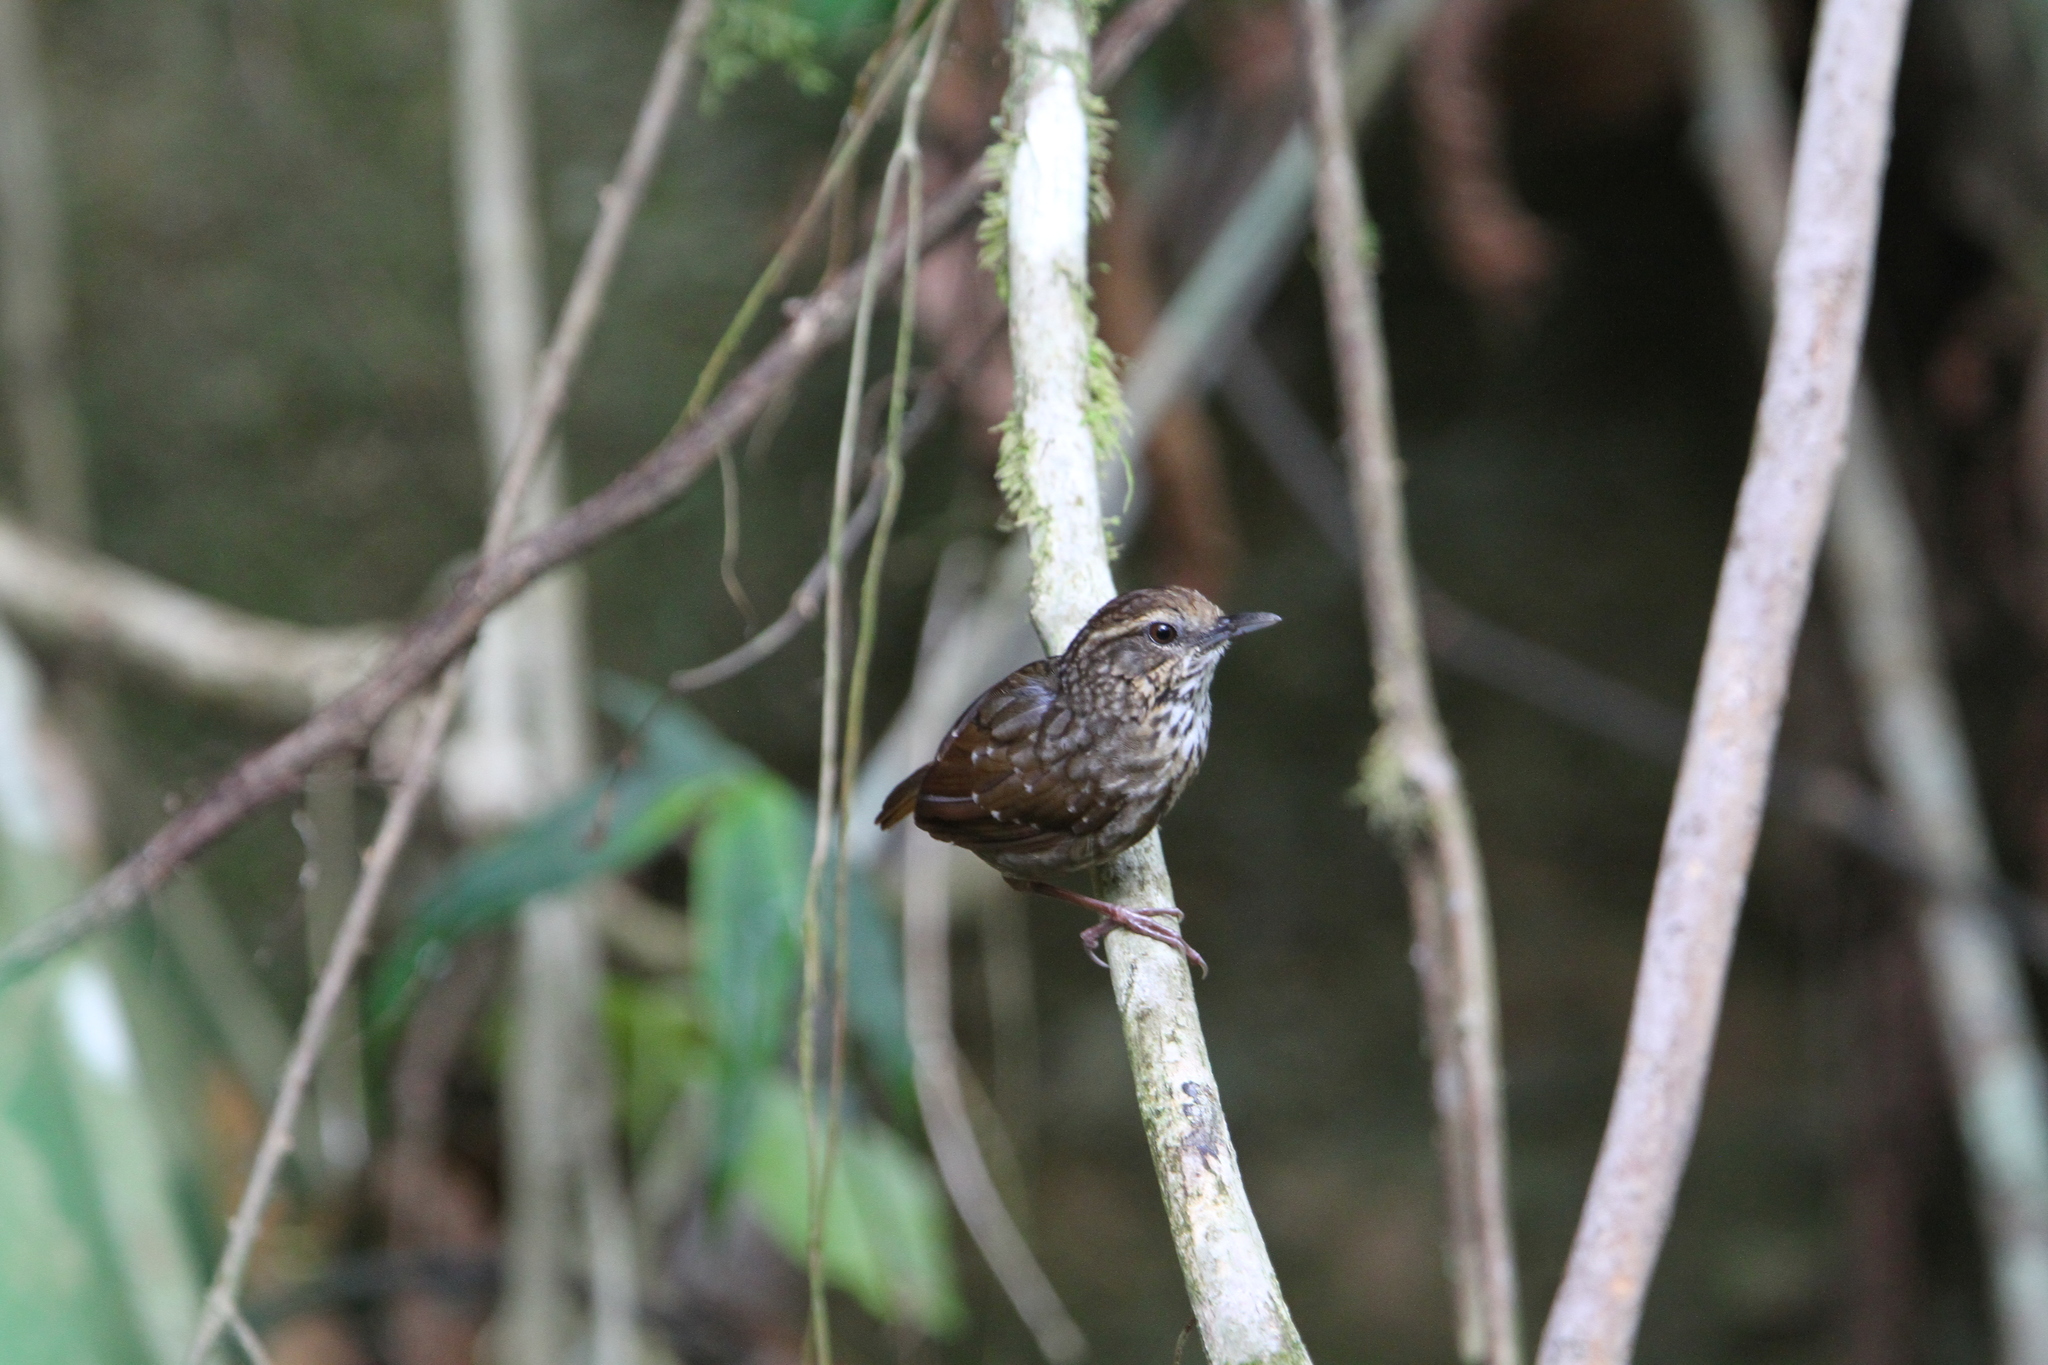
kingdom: Animalia
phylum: Chordata
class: Aves
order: Passeriformes
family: Pellorneidae
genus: Napothera
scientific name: Napothera epilepidota
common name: Eyebrowed wren-babbler
